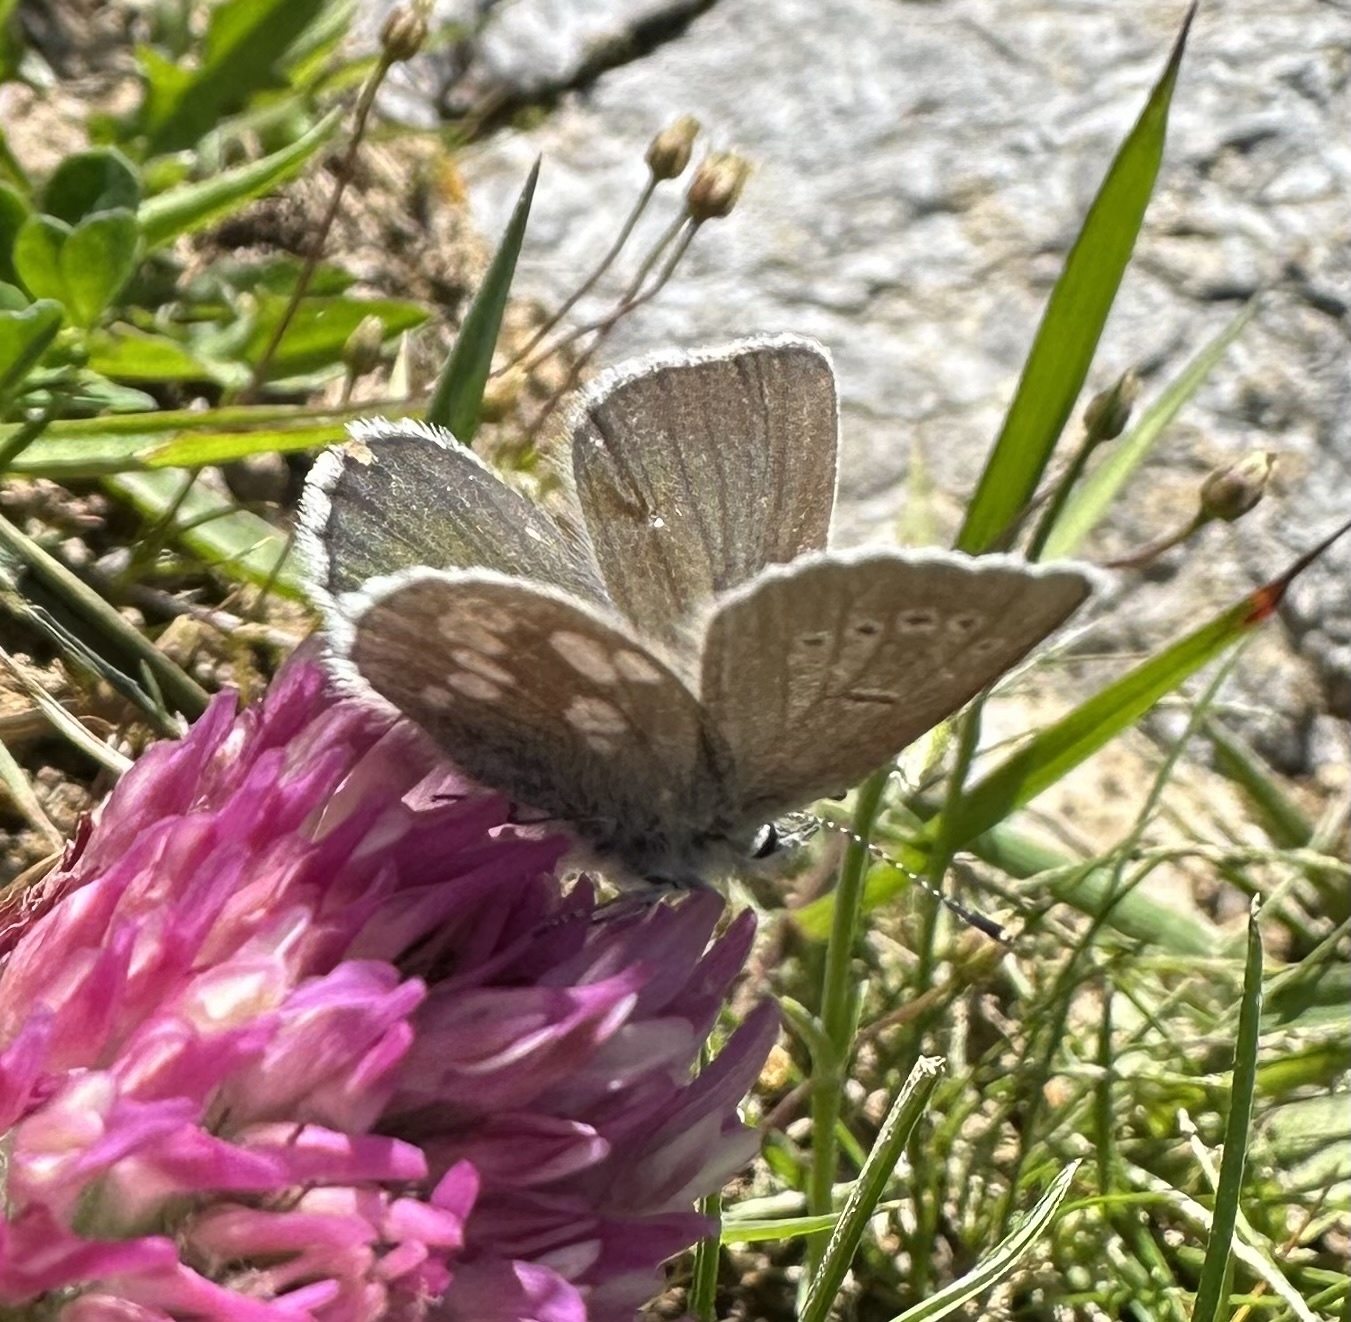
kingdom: Animalia
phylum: Arthropoda
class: Insecta
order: Lepidoptera
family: Lycaenidae
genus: Albulina
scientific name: Albulina orbitulus
